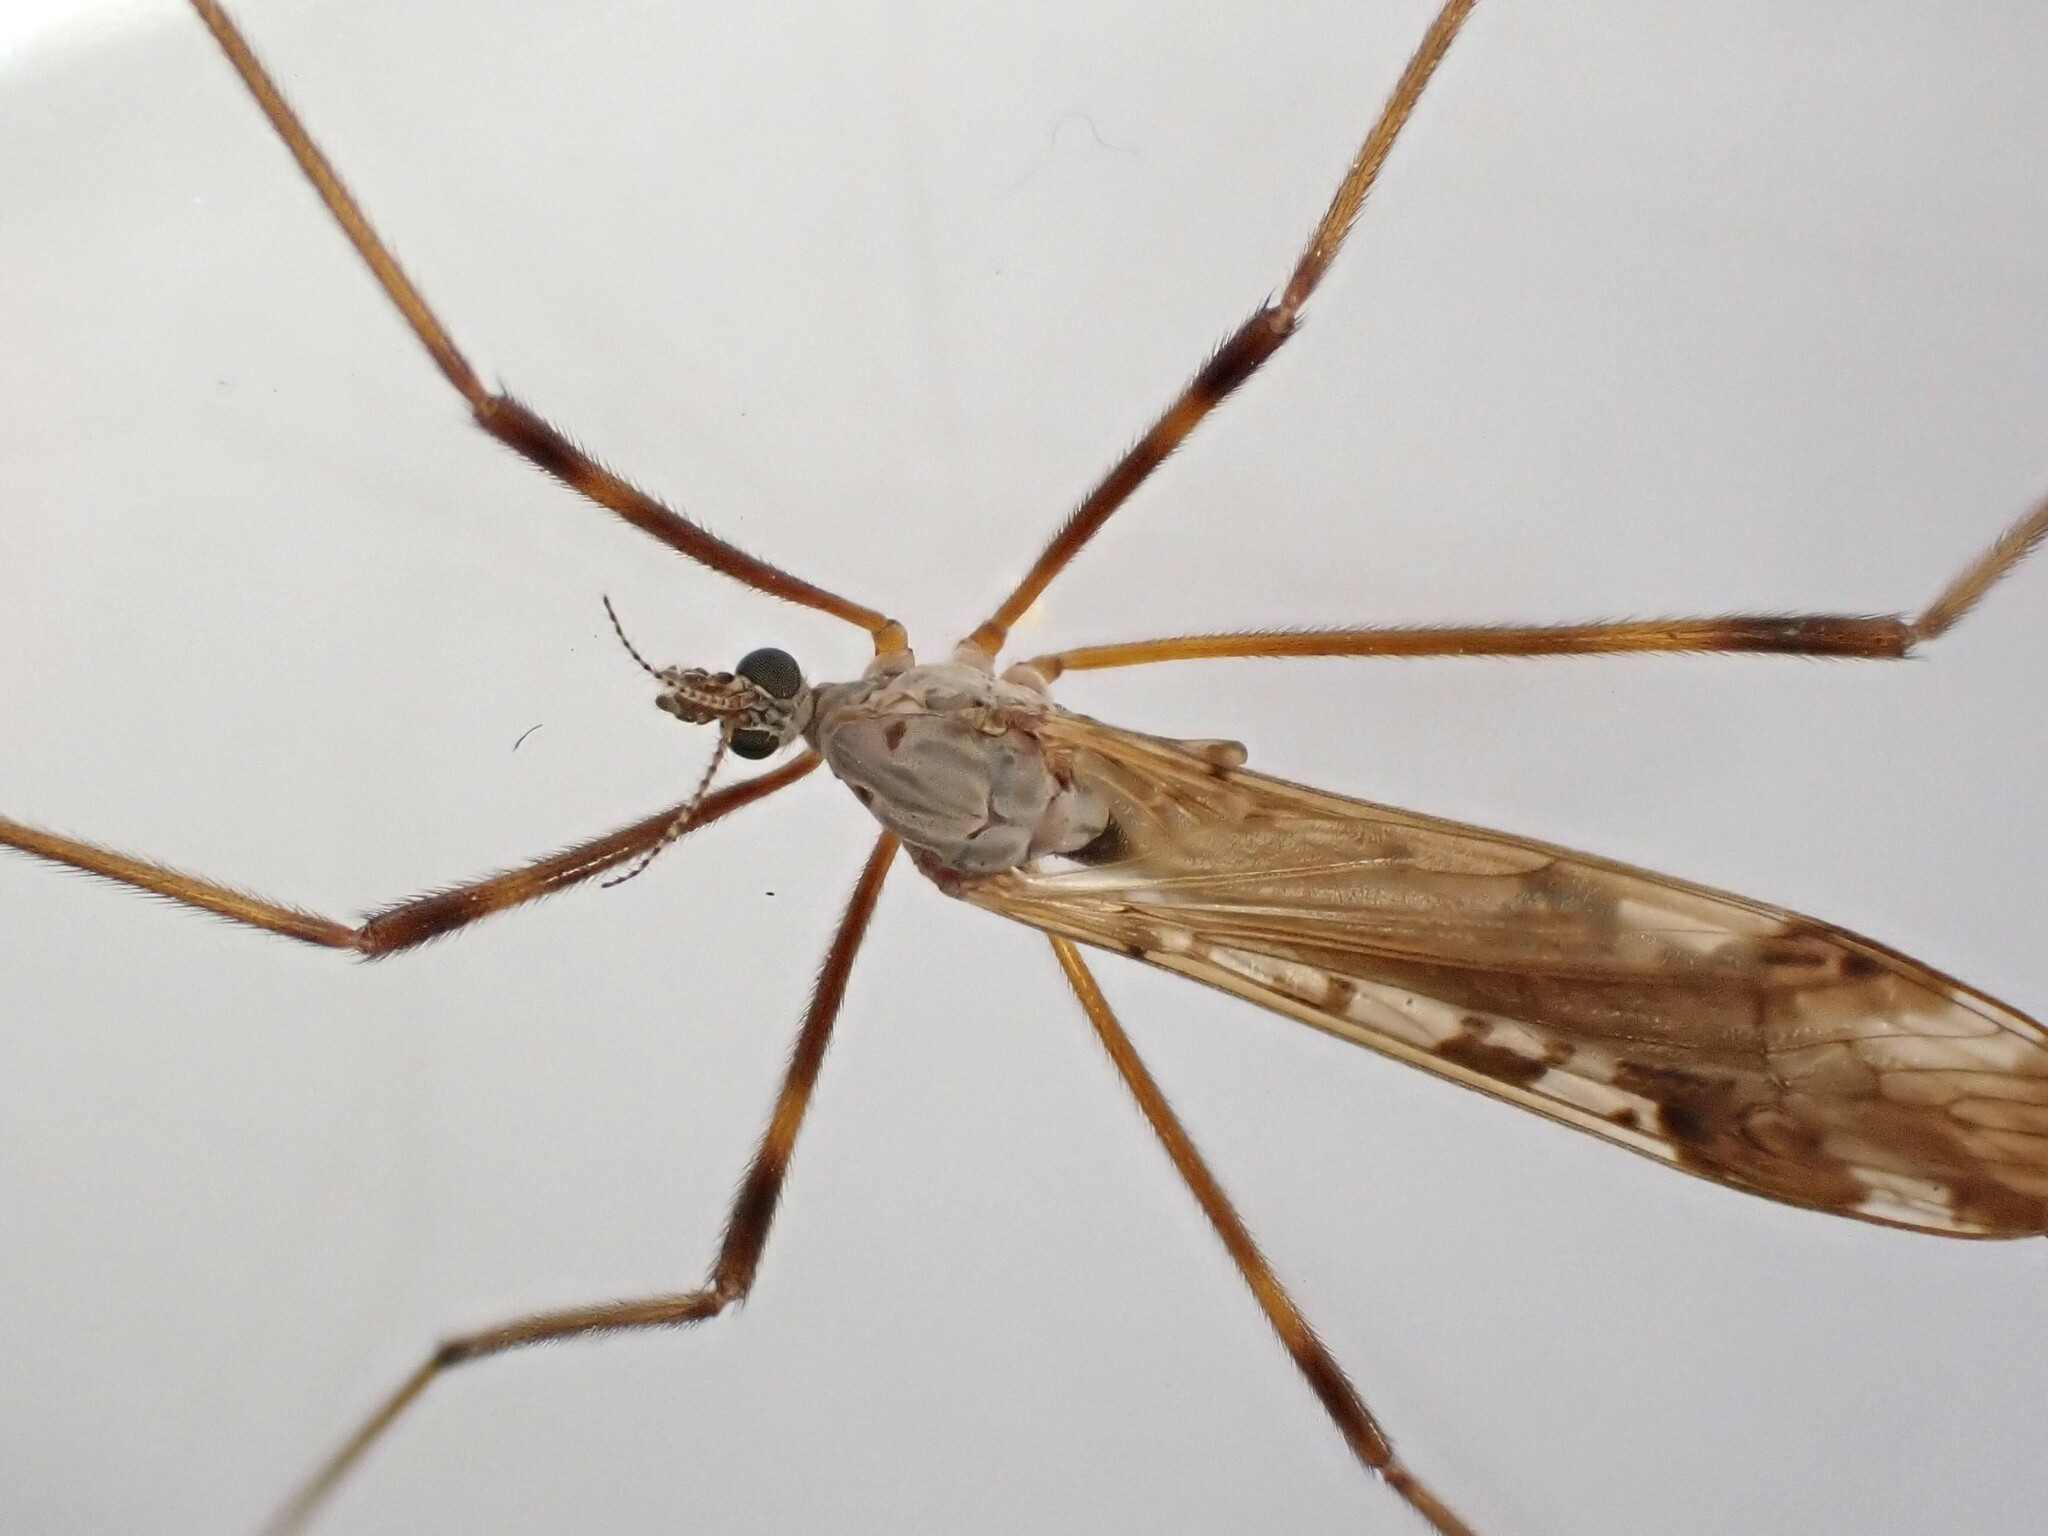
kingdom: Animalia
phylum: Arthropoda
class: Insecta
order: Diptera
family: Limoniidae
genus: Paralimnophila
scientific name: Paralimnophila skusei
